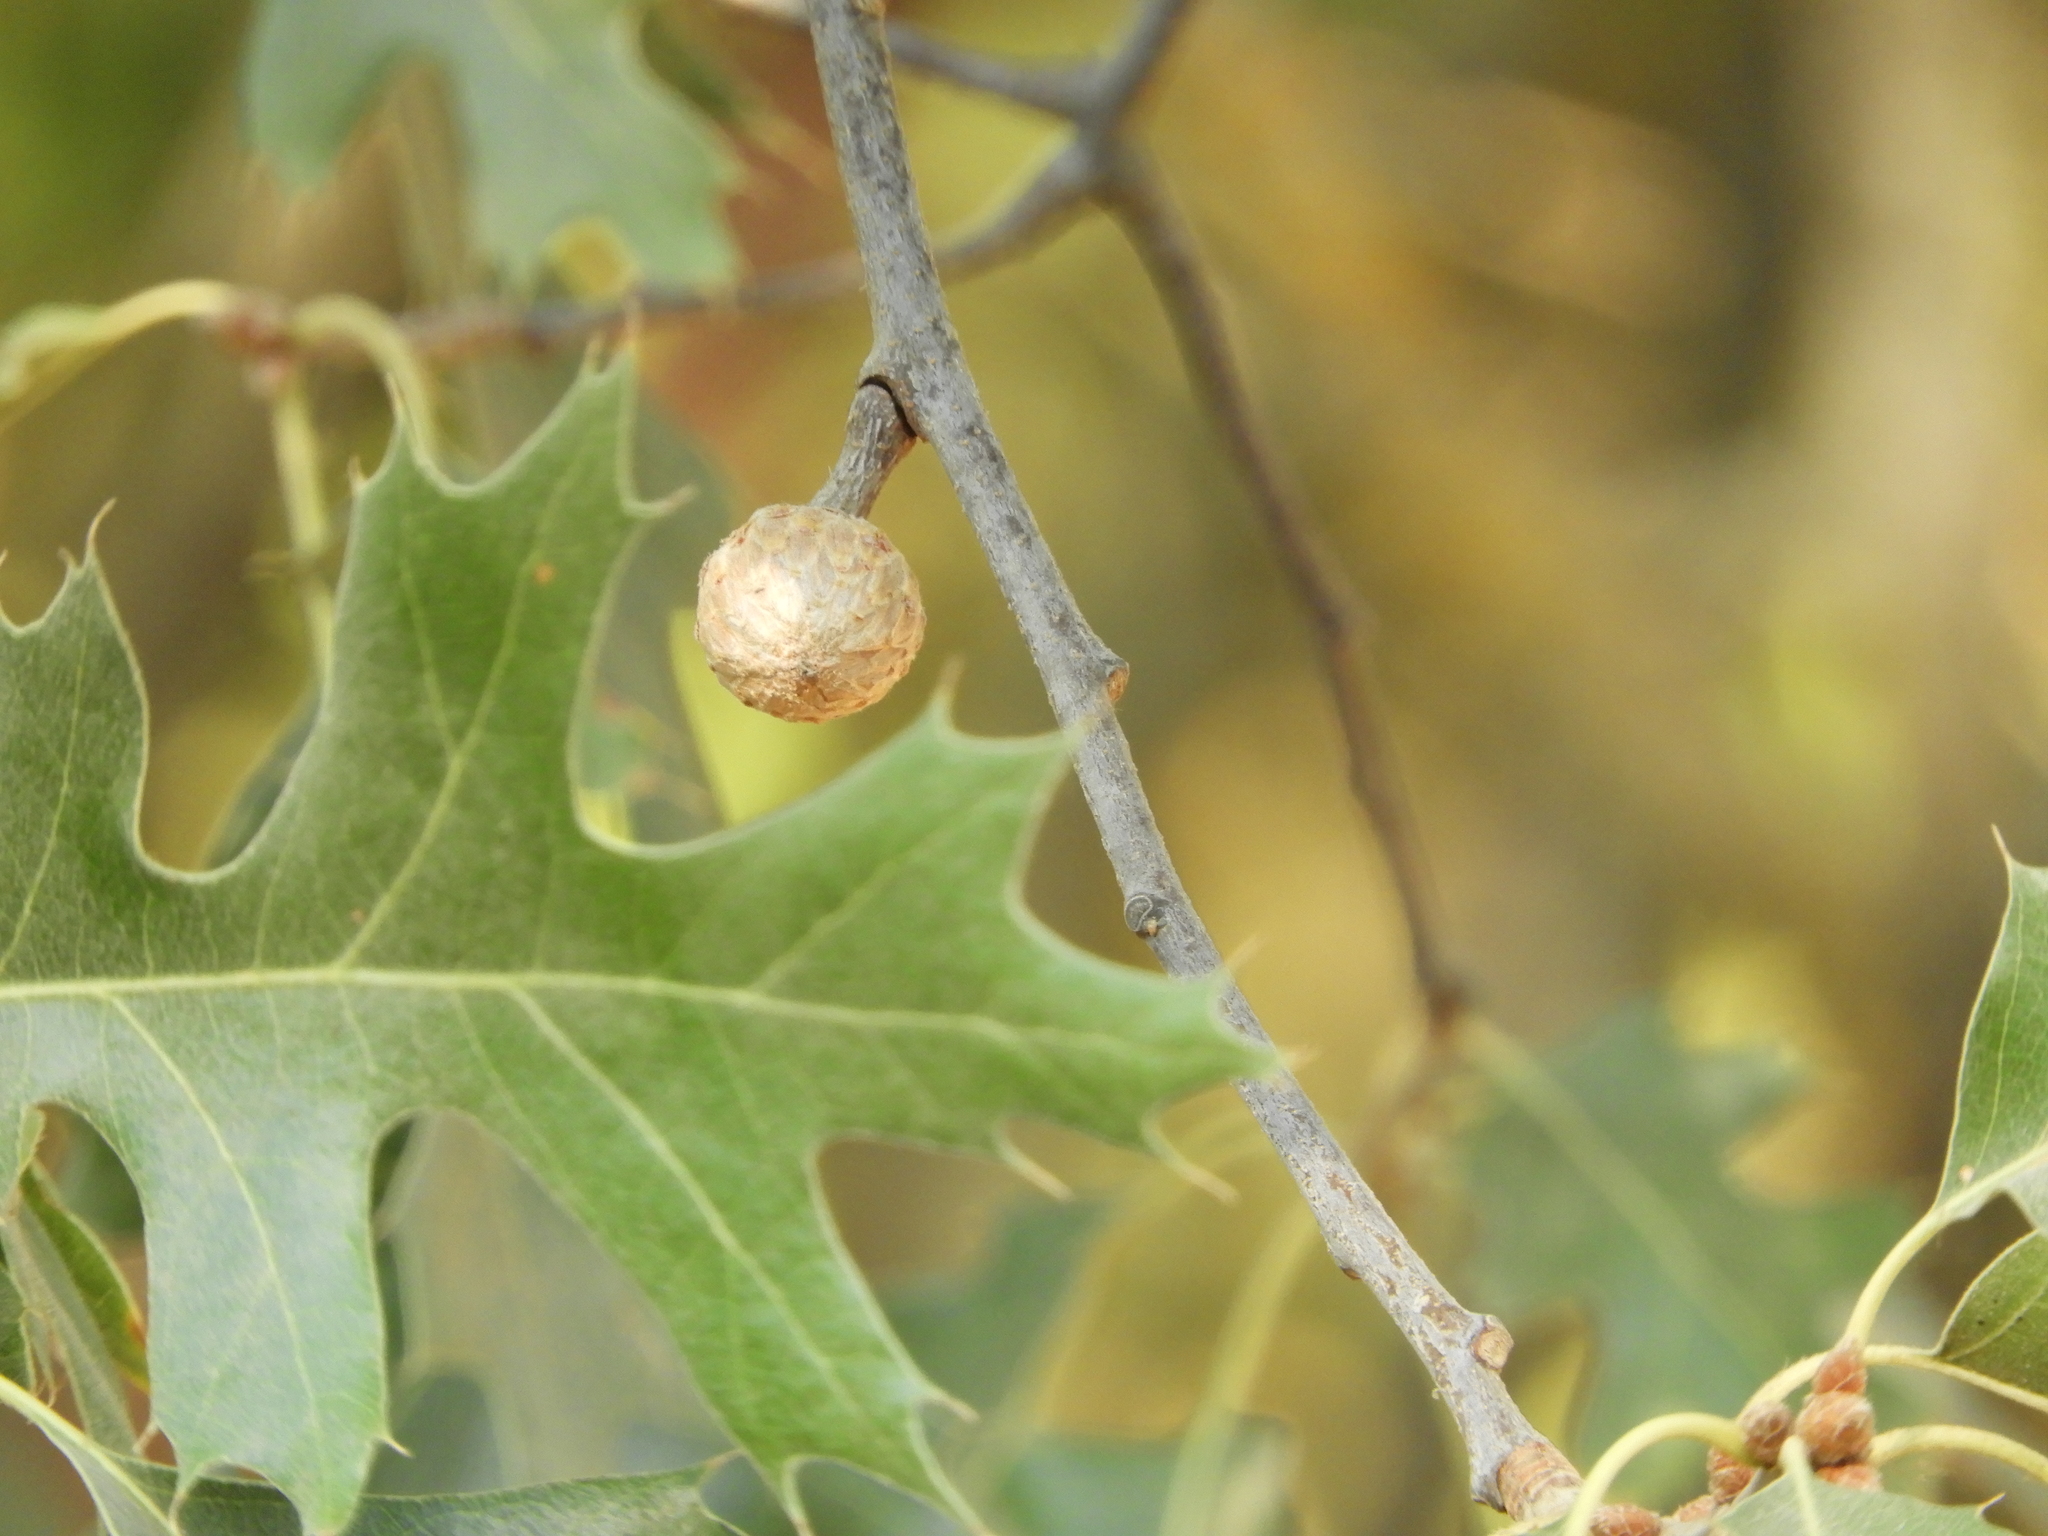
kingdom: Plantae
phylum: Tracheophyta
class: Magnoliopsida
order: Fagales
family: Fagaceae
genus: Quercus
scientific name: Quercus kelloggii
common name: California black oak
